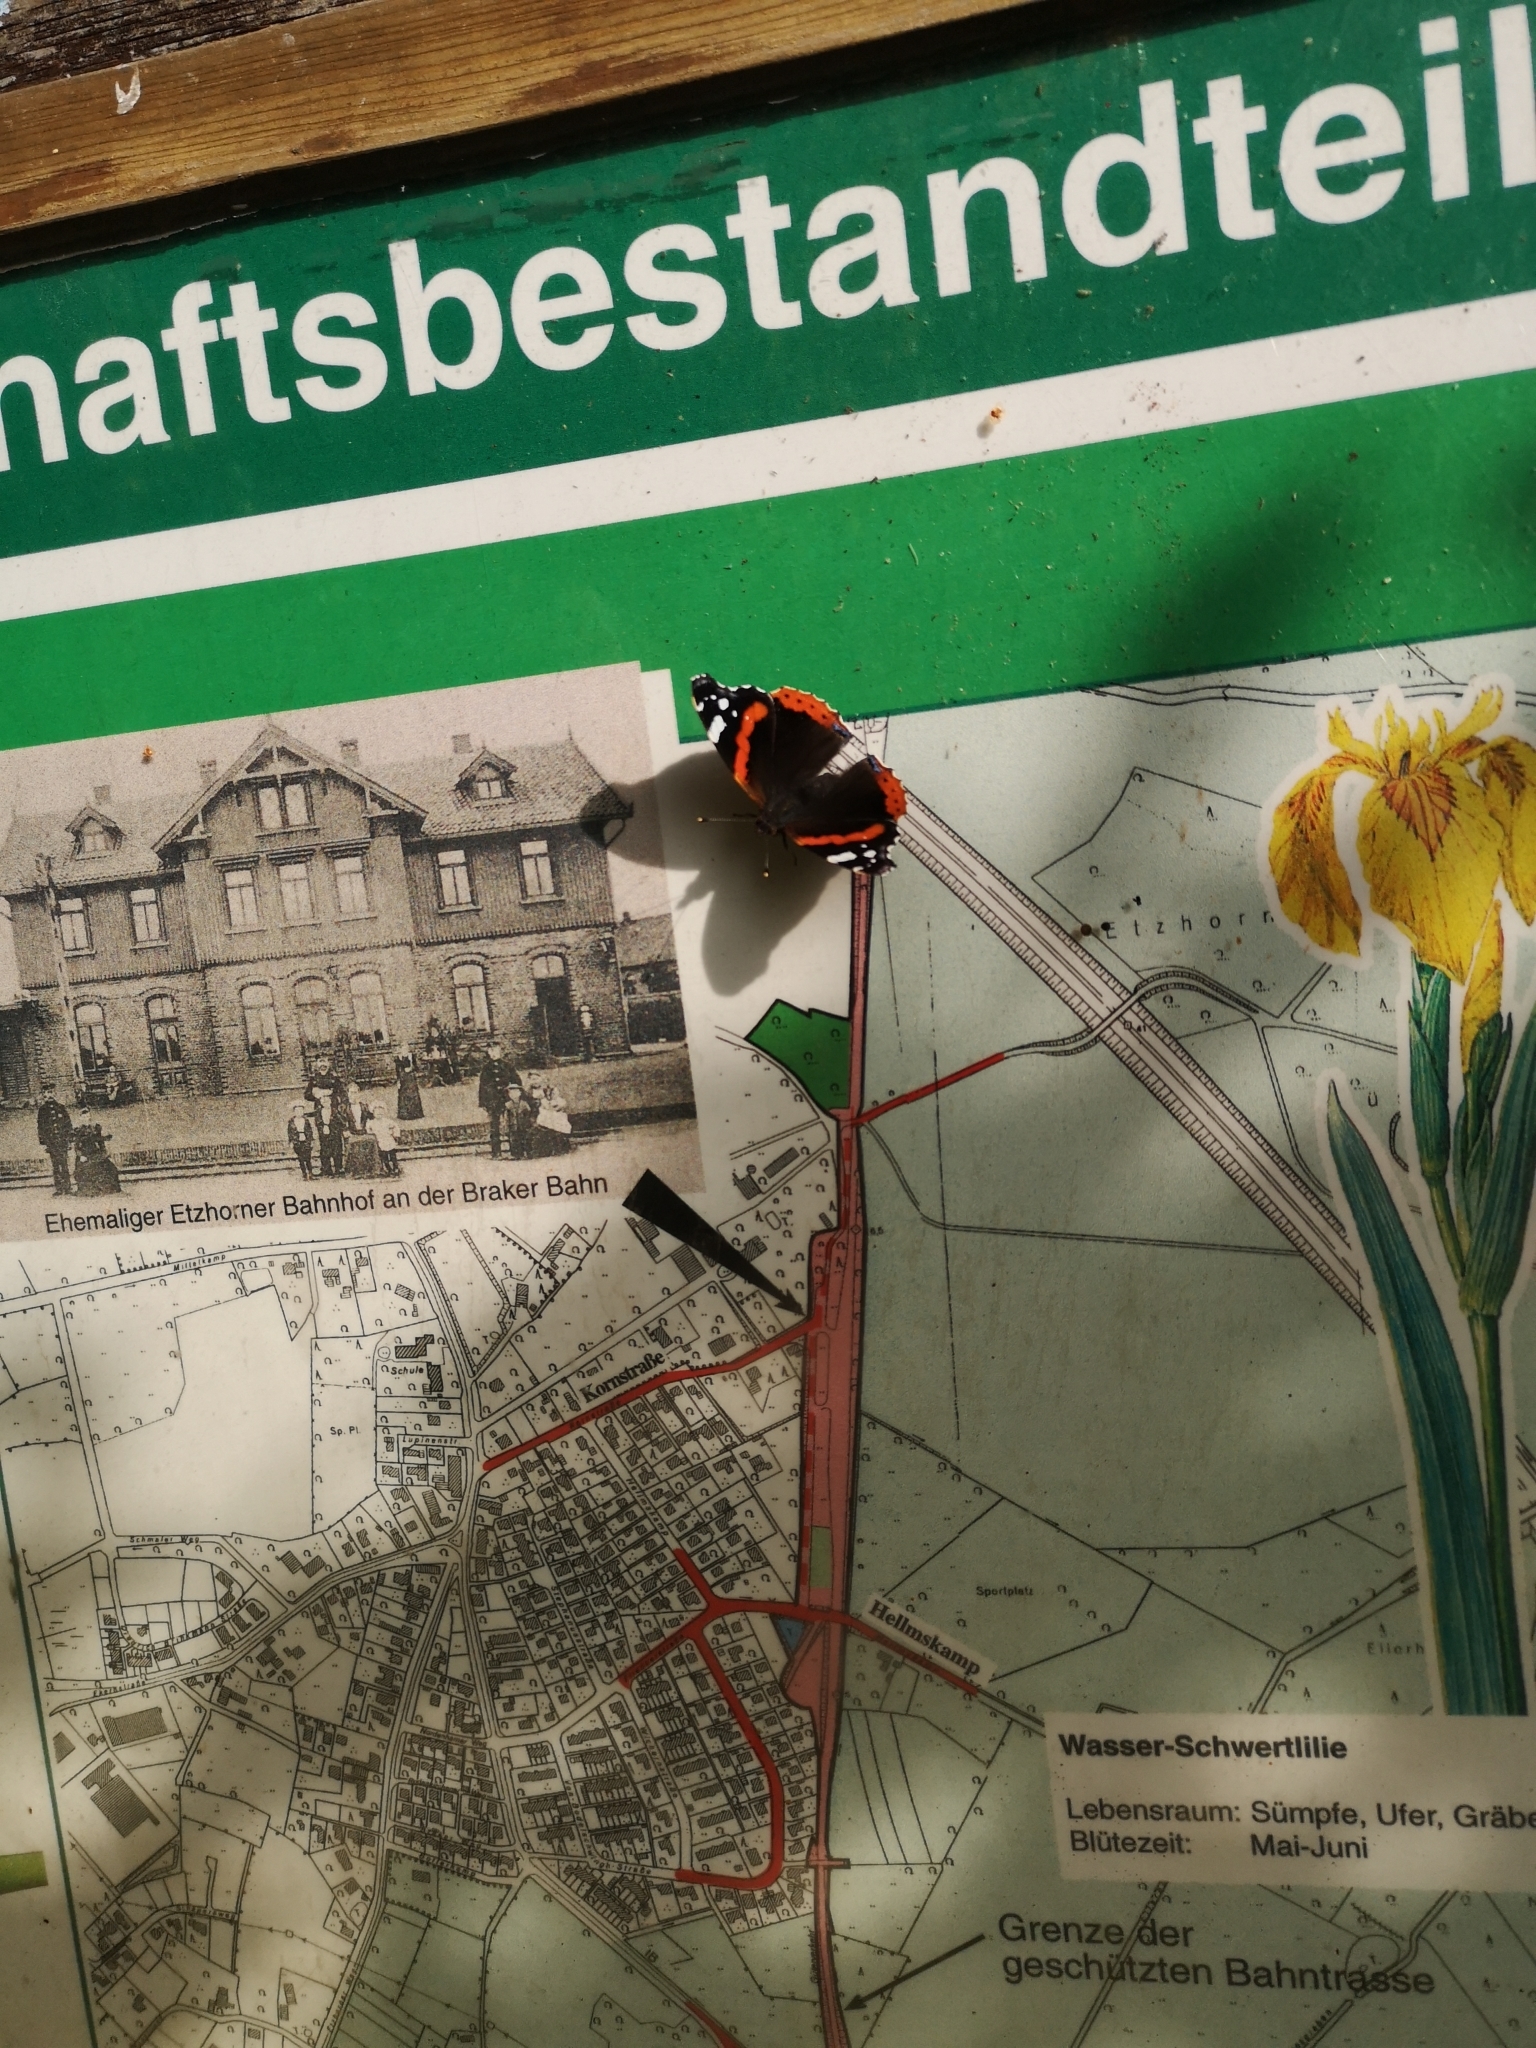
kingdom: Animalia
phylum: Arthropoda
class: Insecta
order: Lepidoptera
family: Nymphalidae
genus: Vanessa
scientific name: Vanessa atalanta
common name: Red admiral
